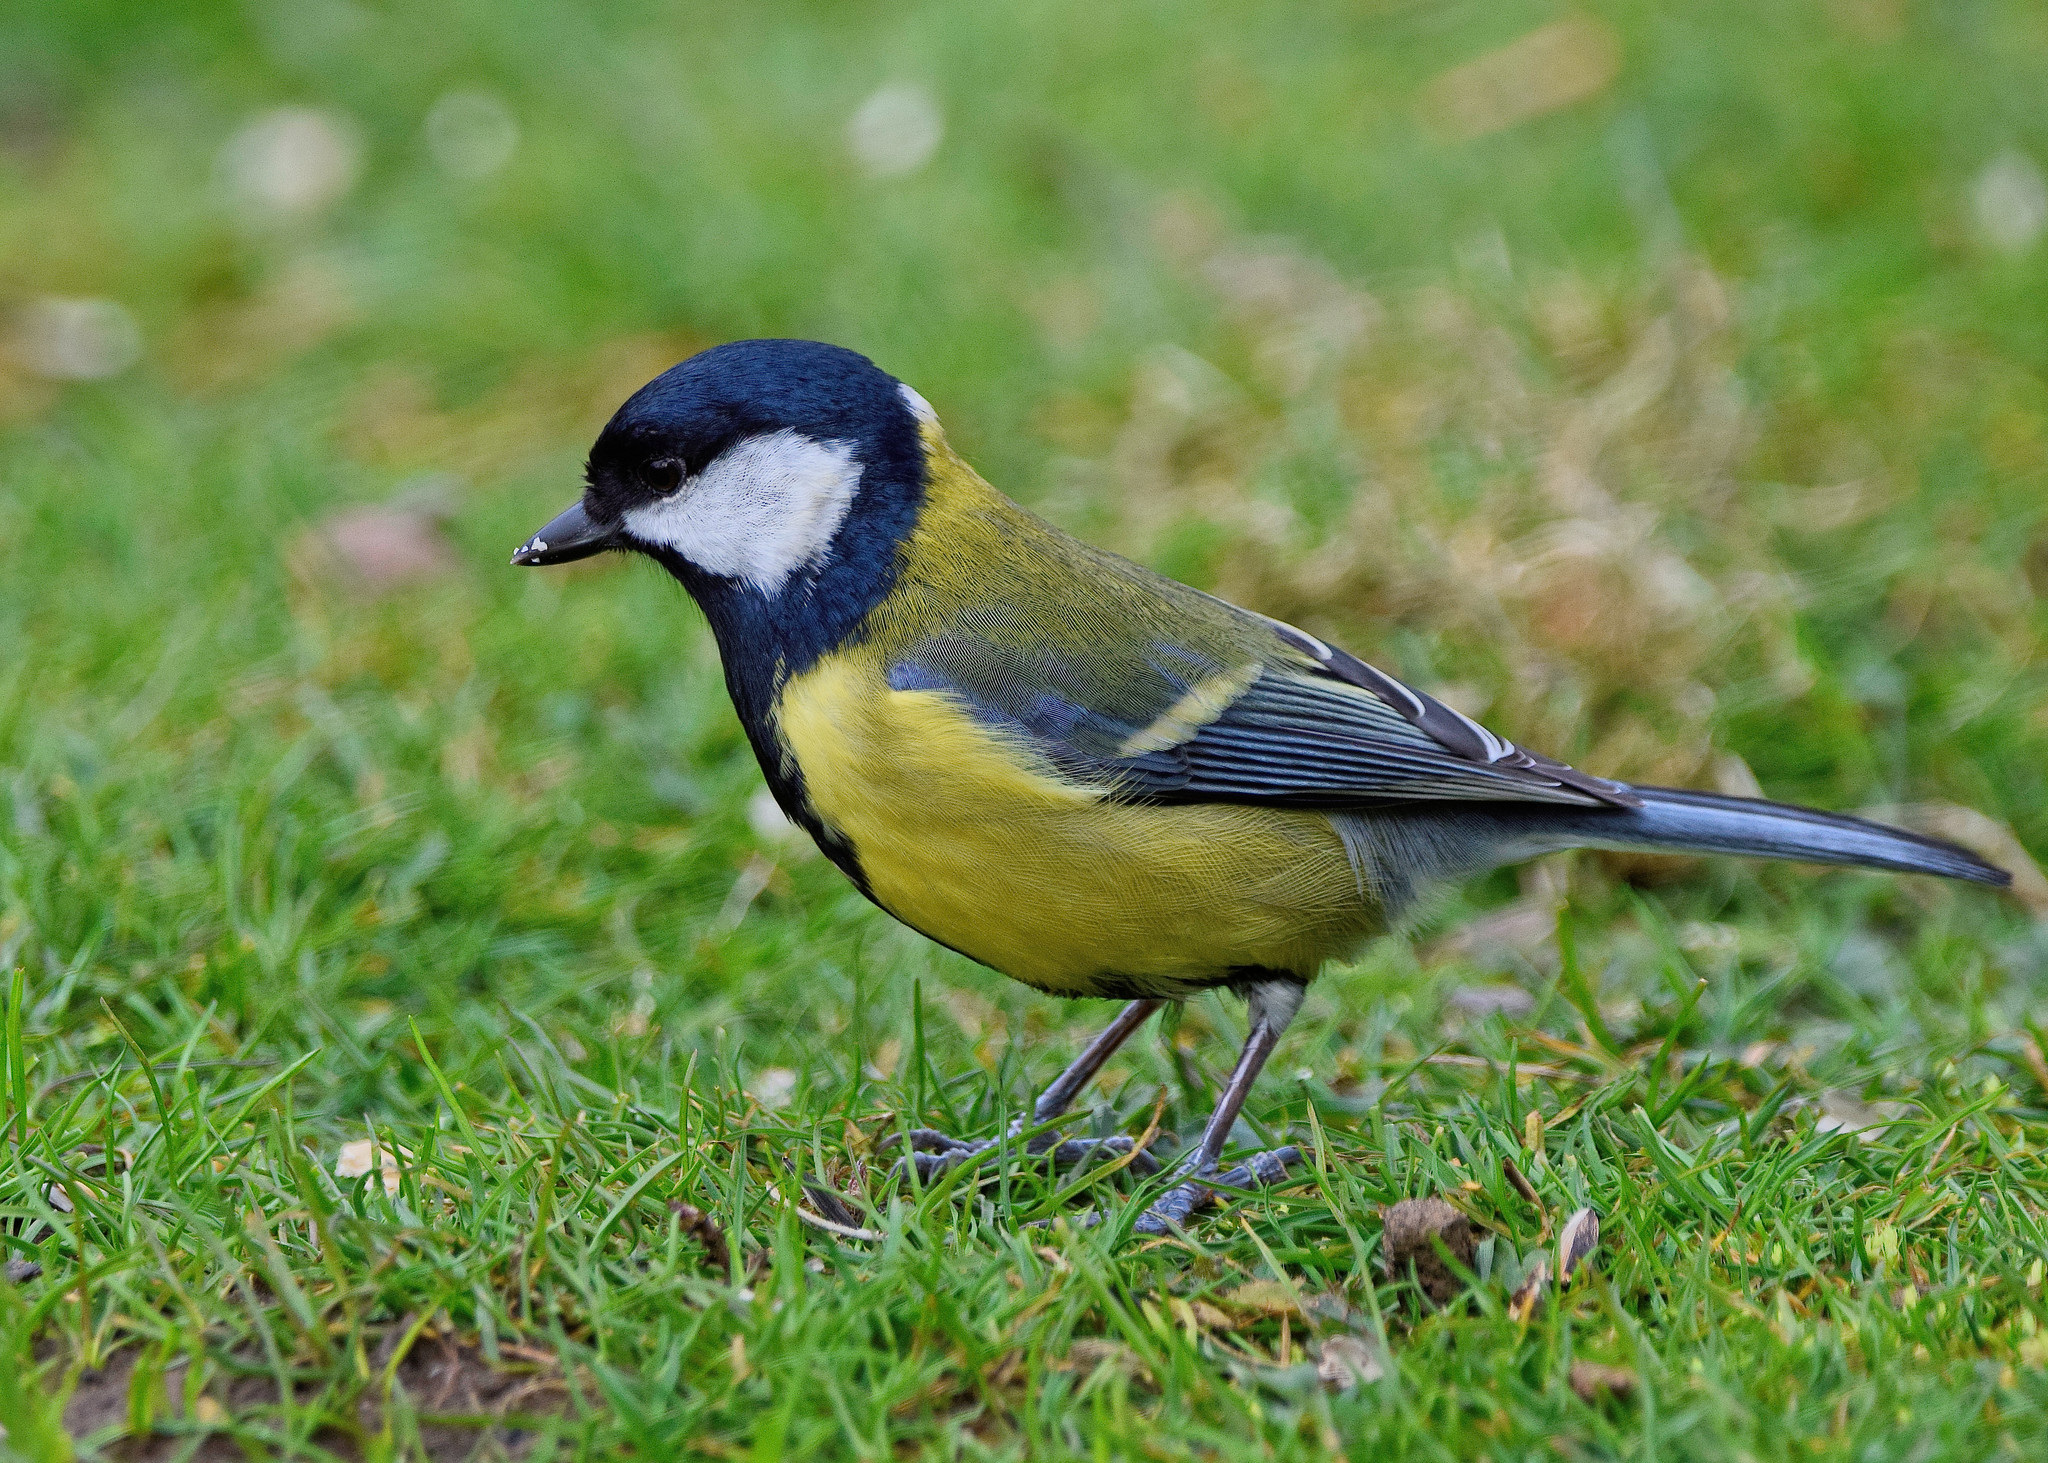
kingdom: Animalia
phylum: Chordata
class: Aves
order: Passeriformes
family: Paridae
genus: Parus
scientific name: Parus major
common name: Great tit
